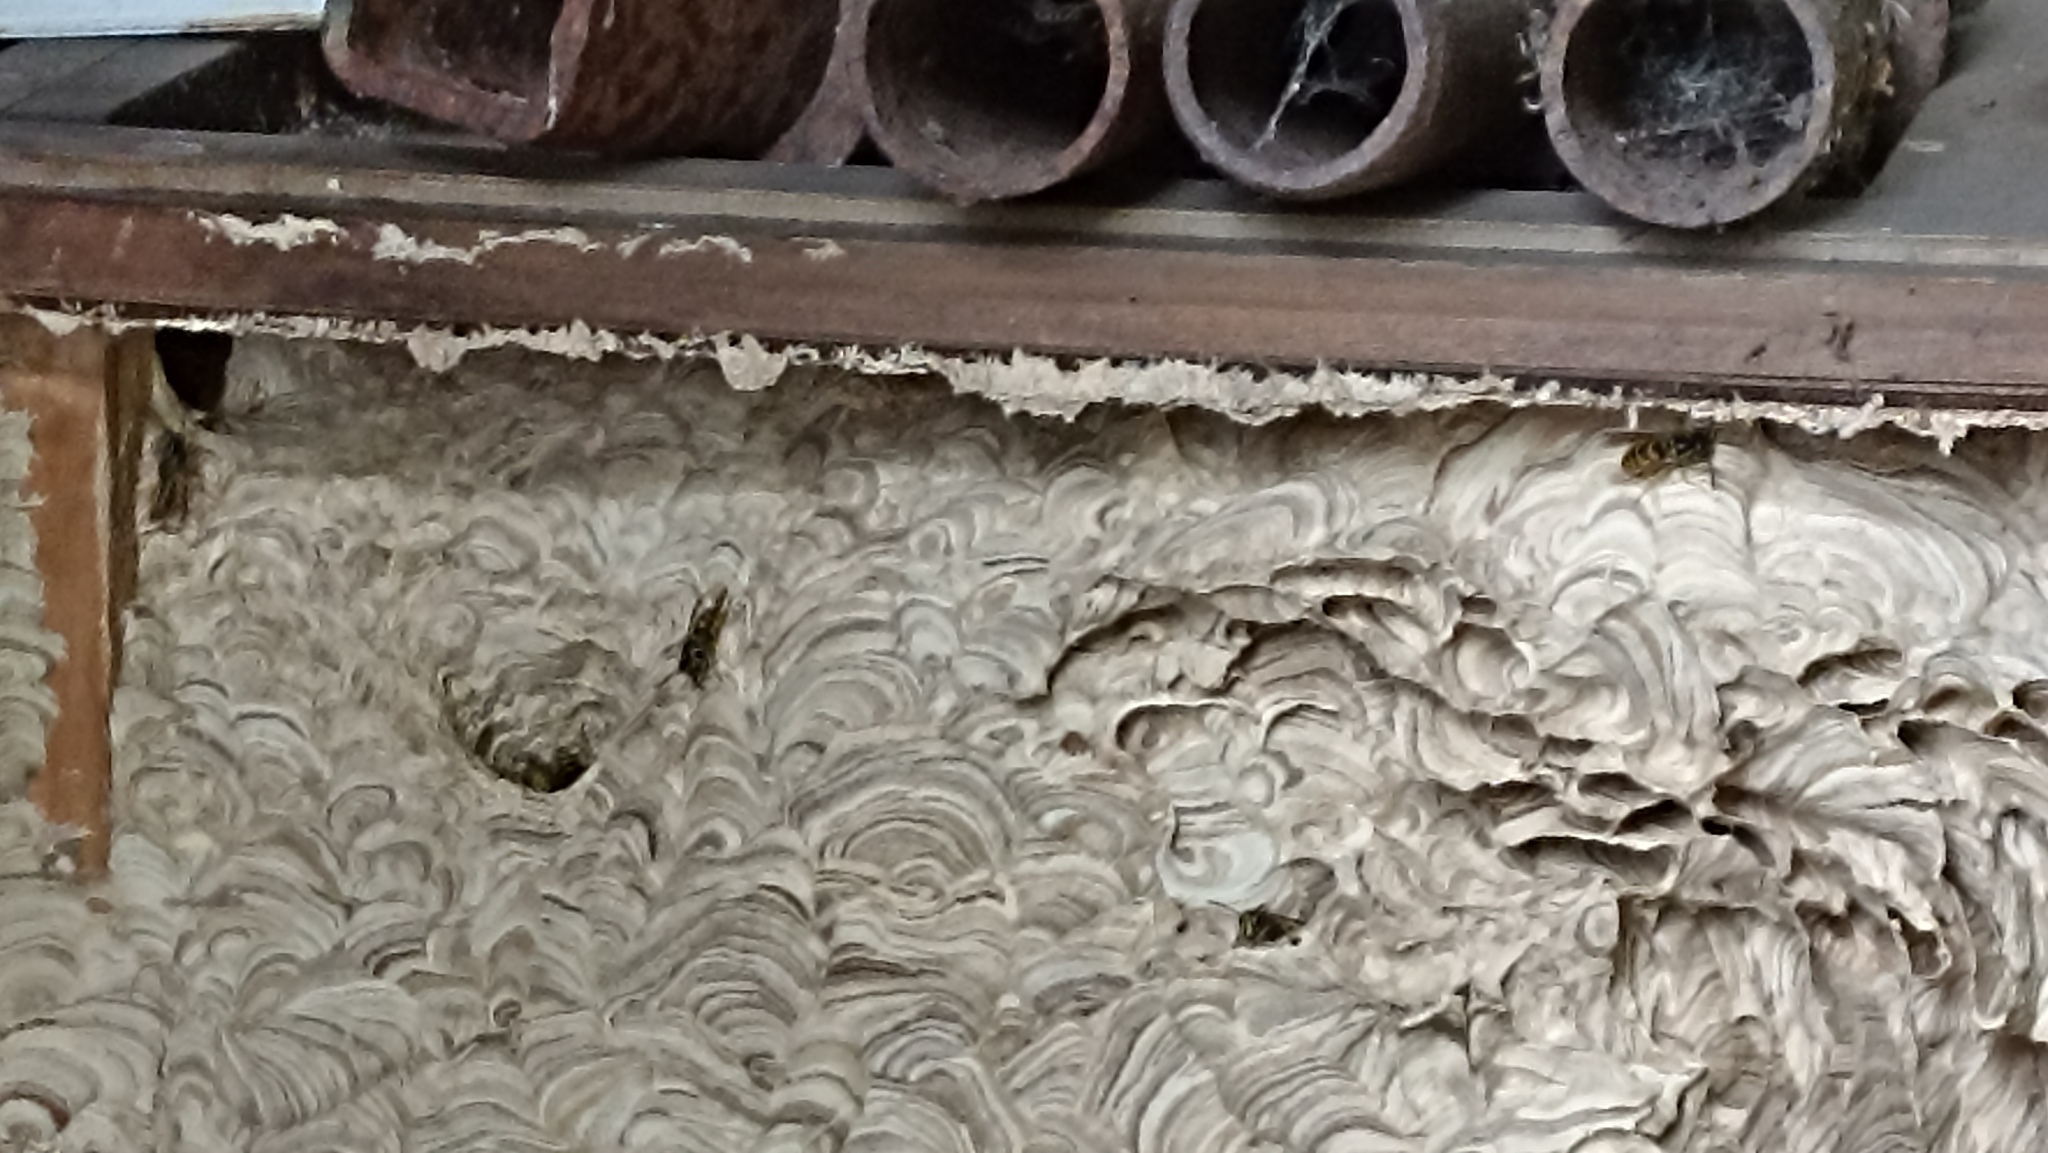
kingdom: Animalia
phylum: Arthropoda
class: Insecta
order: Hymenoptera
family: Vespidae
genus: Vespula
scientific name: Vespula vulgaris
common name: Common wasp
